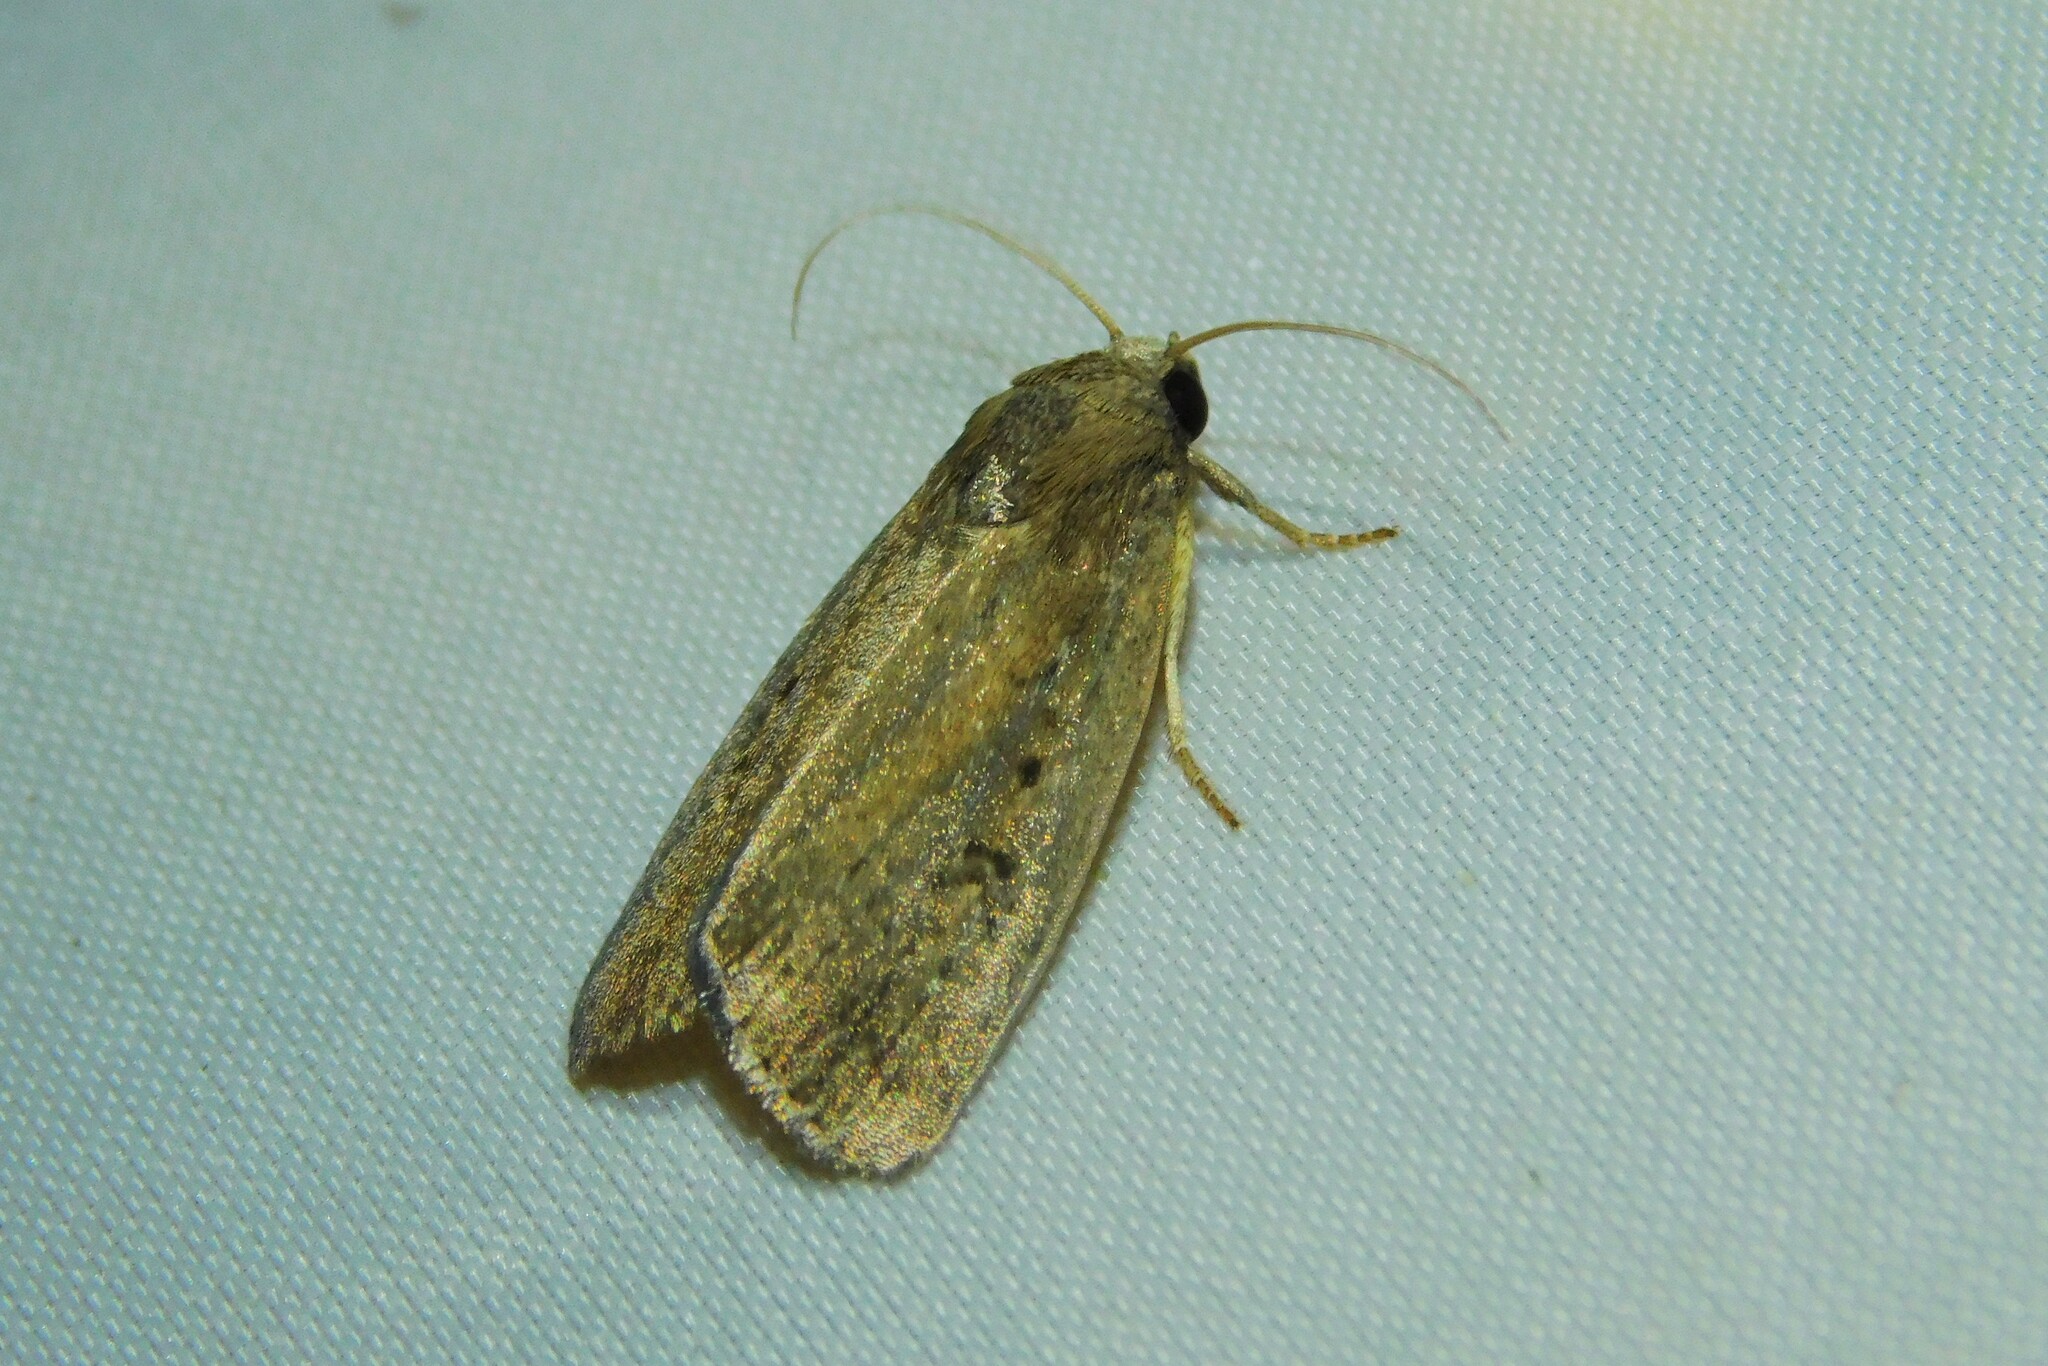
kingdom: Animalia
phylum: Arthropoda
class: Insecta
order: Lepidoptera
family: Noctuidae
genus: Athetis
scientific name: Athetis hospes
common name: Porter's rustic
